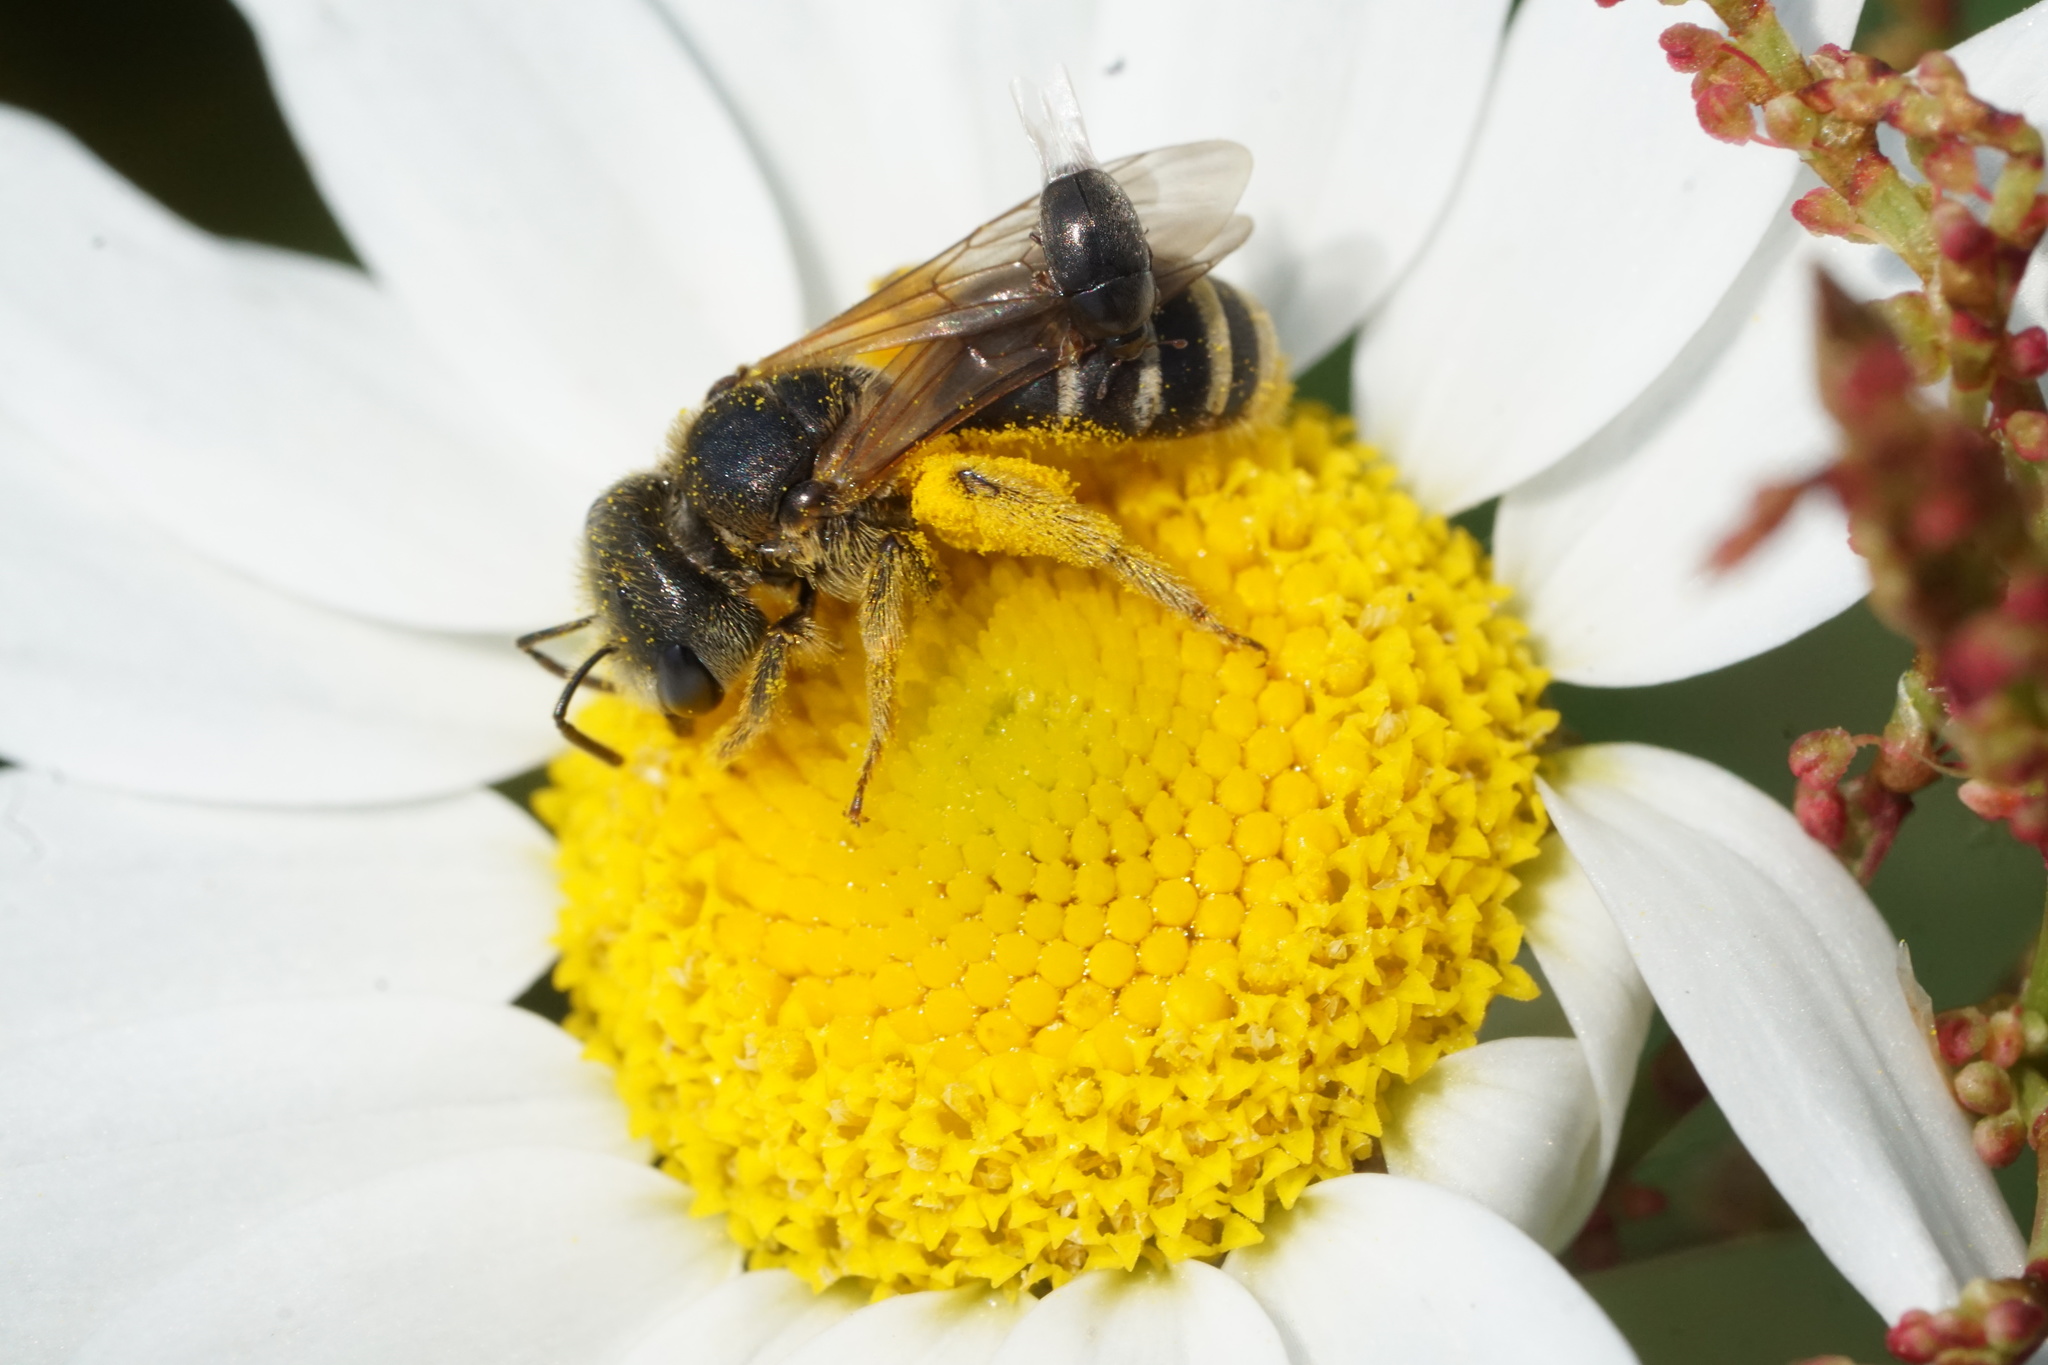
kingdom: Animalia
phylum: Arthropoda
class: Insecta
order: Hymenoptera
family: Halictidae
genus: Halictus
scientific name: Halictus ligatus
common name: Ligated furrow bee
